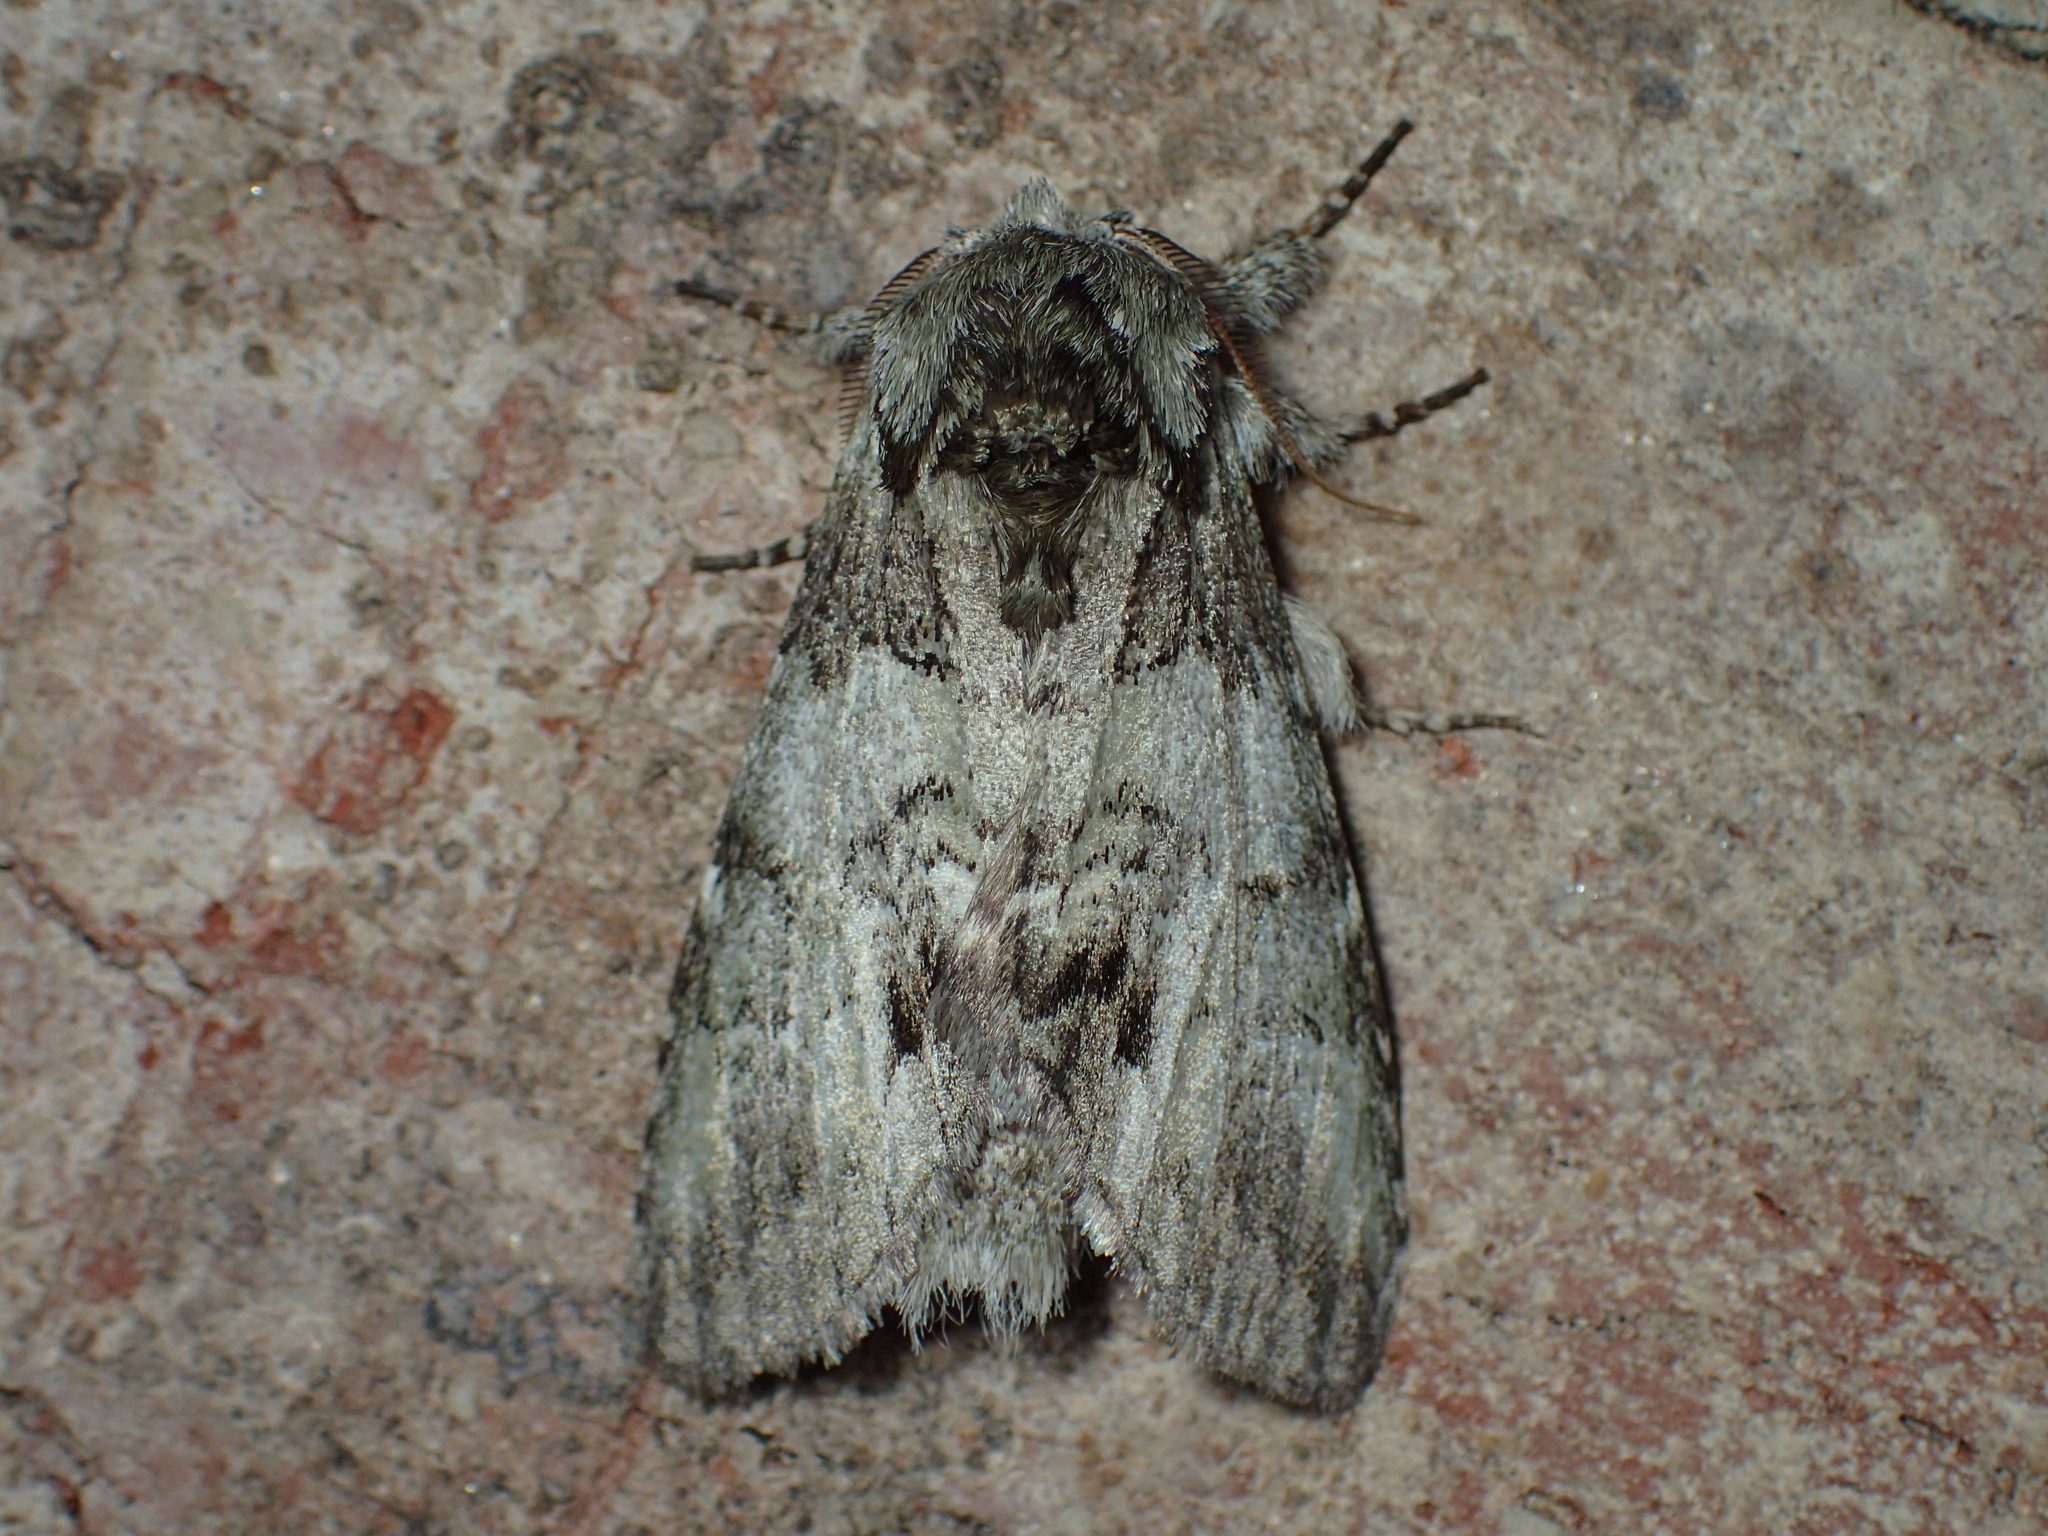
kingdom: Animalia
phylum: Arthropoda
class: Insecta
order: Lepidoptera
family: Notodontidae
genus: Macrurocampa
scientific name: Macrurocampa marthesia
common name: Mottled prominent
